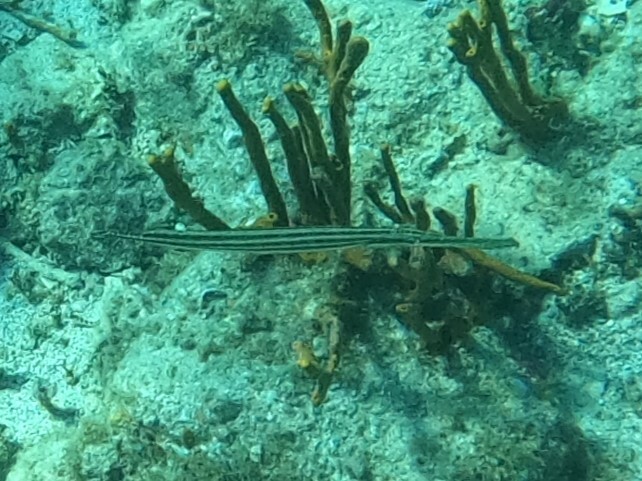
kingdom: Animalia
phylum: Chordata
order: Syngnathiformes
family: Aulostomidae
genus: Aulostomus
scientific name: Aulostomus maculatus
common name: West atlantic trumpetfish
